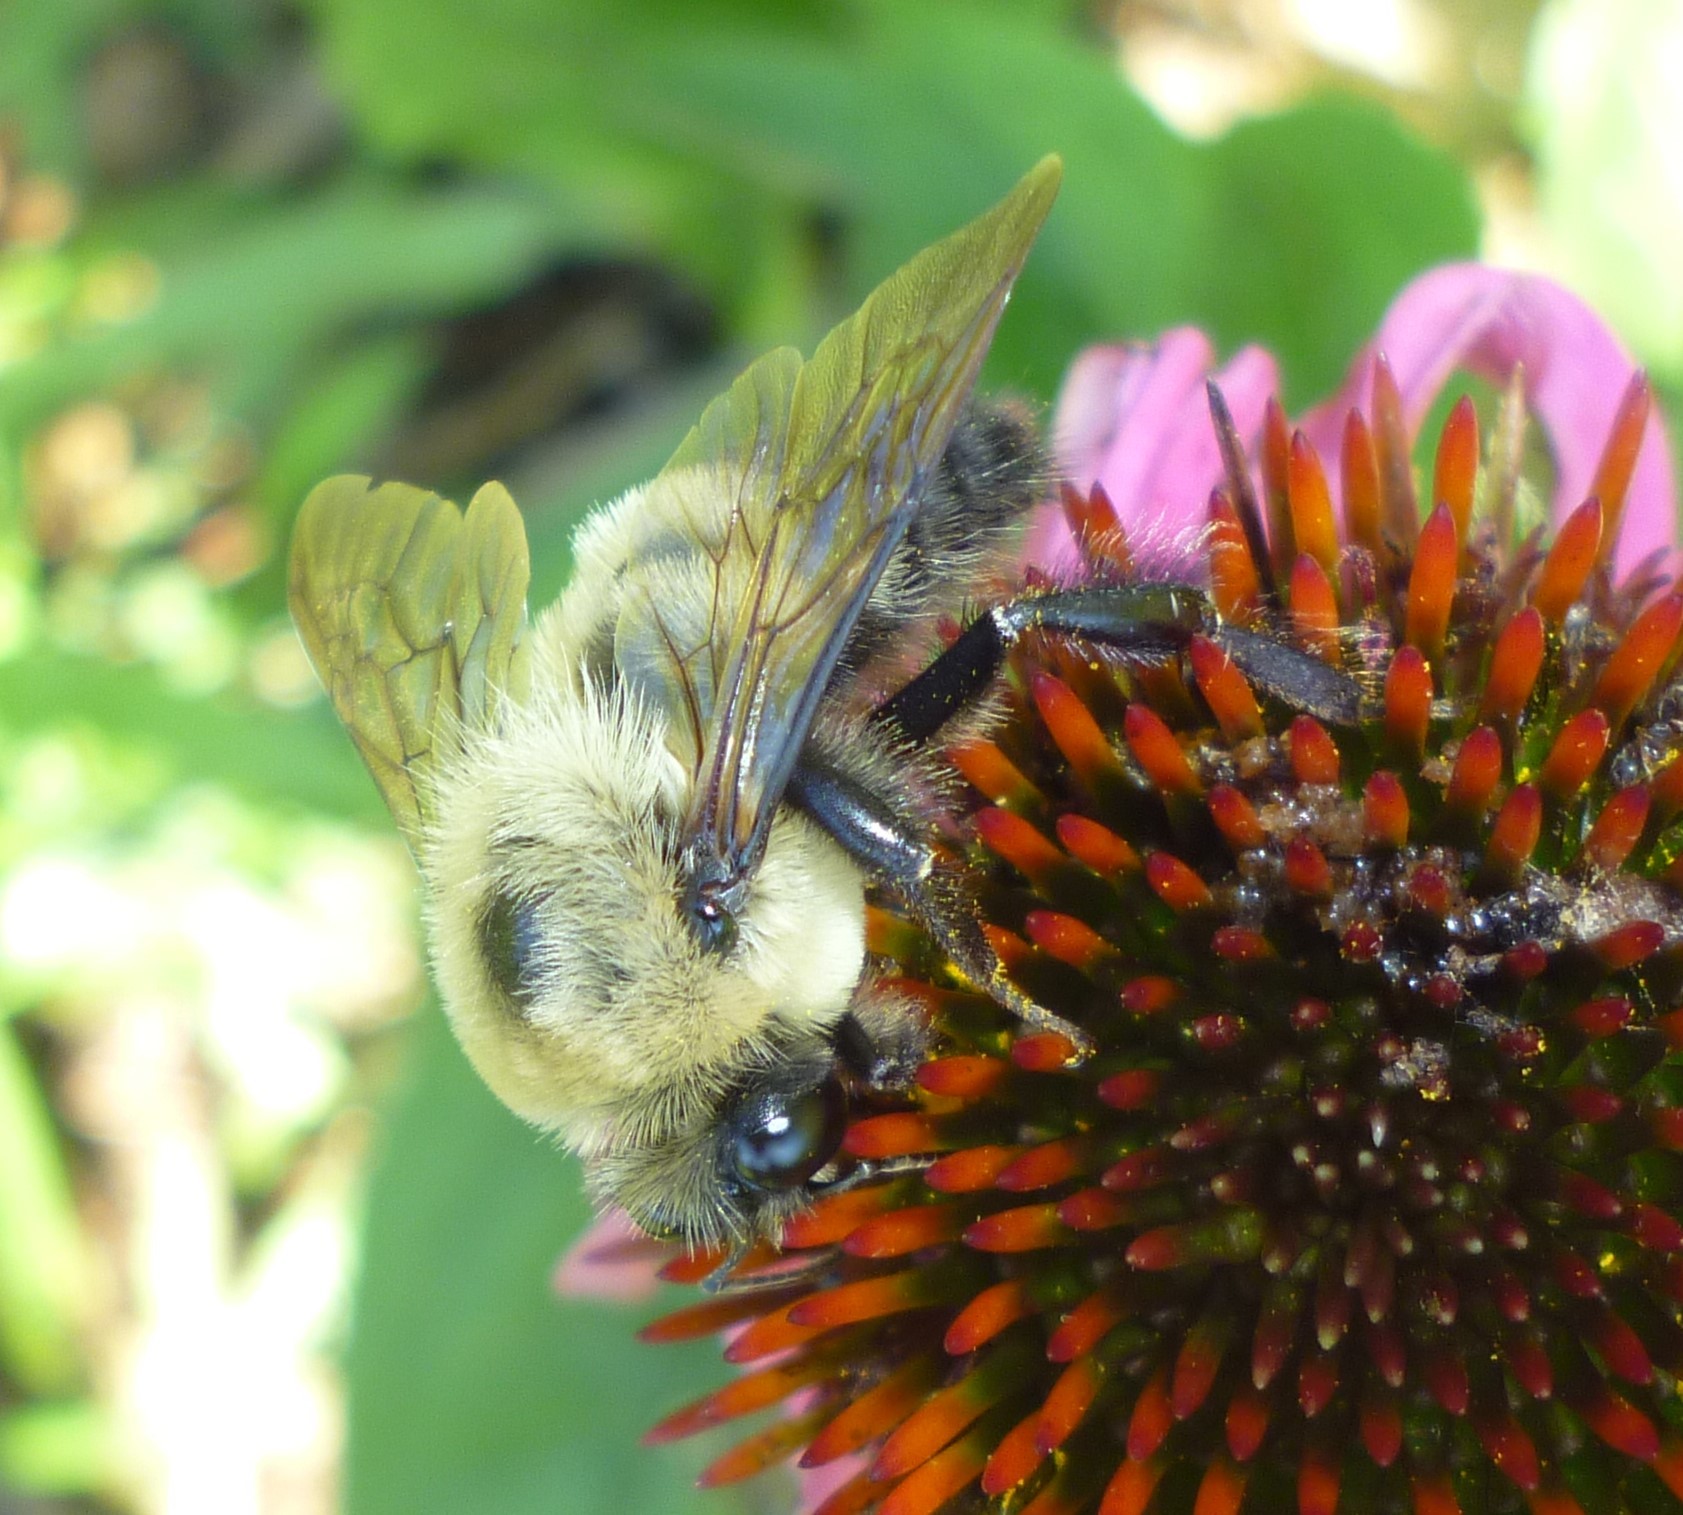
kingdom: Animalia
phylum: Arthropoda
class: Insecta
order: Hymenoptera
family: Apidae
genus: Bombus
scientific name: Bombus griseocollis
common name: Brown-belted bumble bee
